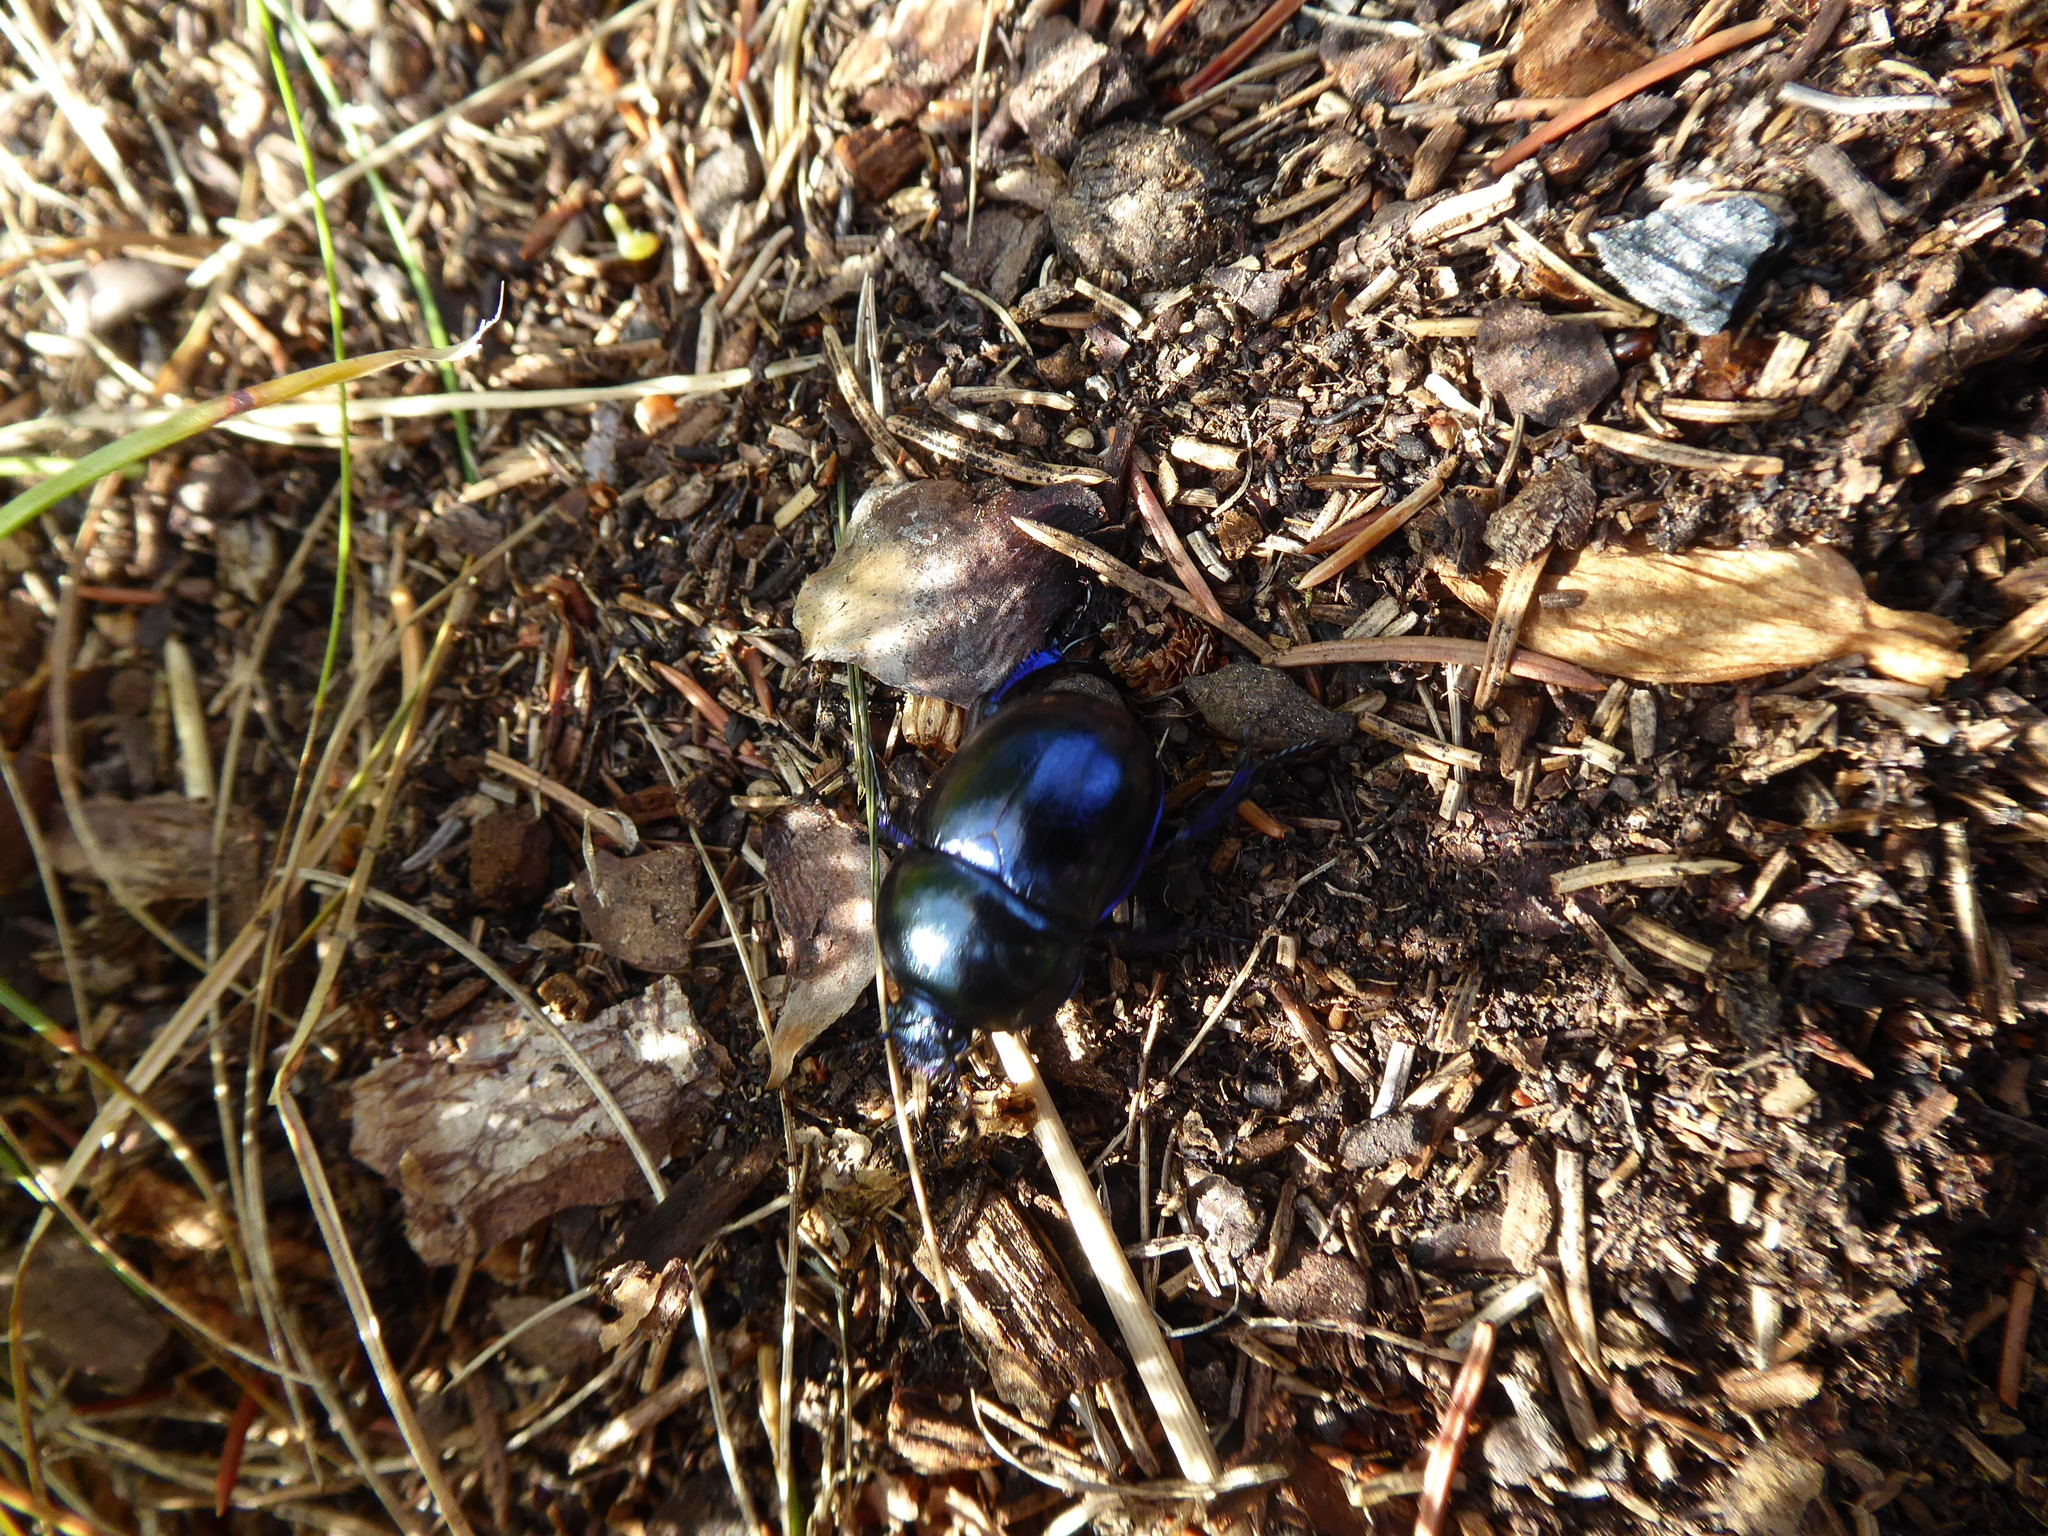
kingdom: Animalia
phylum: Arthropoda
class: Insecta
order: Coleoptera
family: Geotrupidae
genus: Trypocopris
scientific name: Trypocopris vernalis
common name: Spring dumbledor
